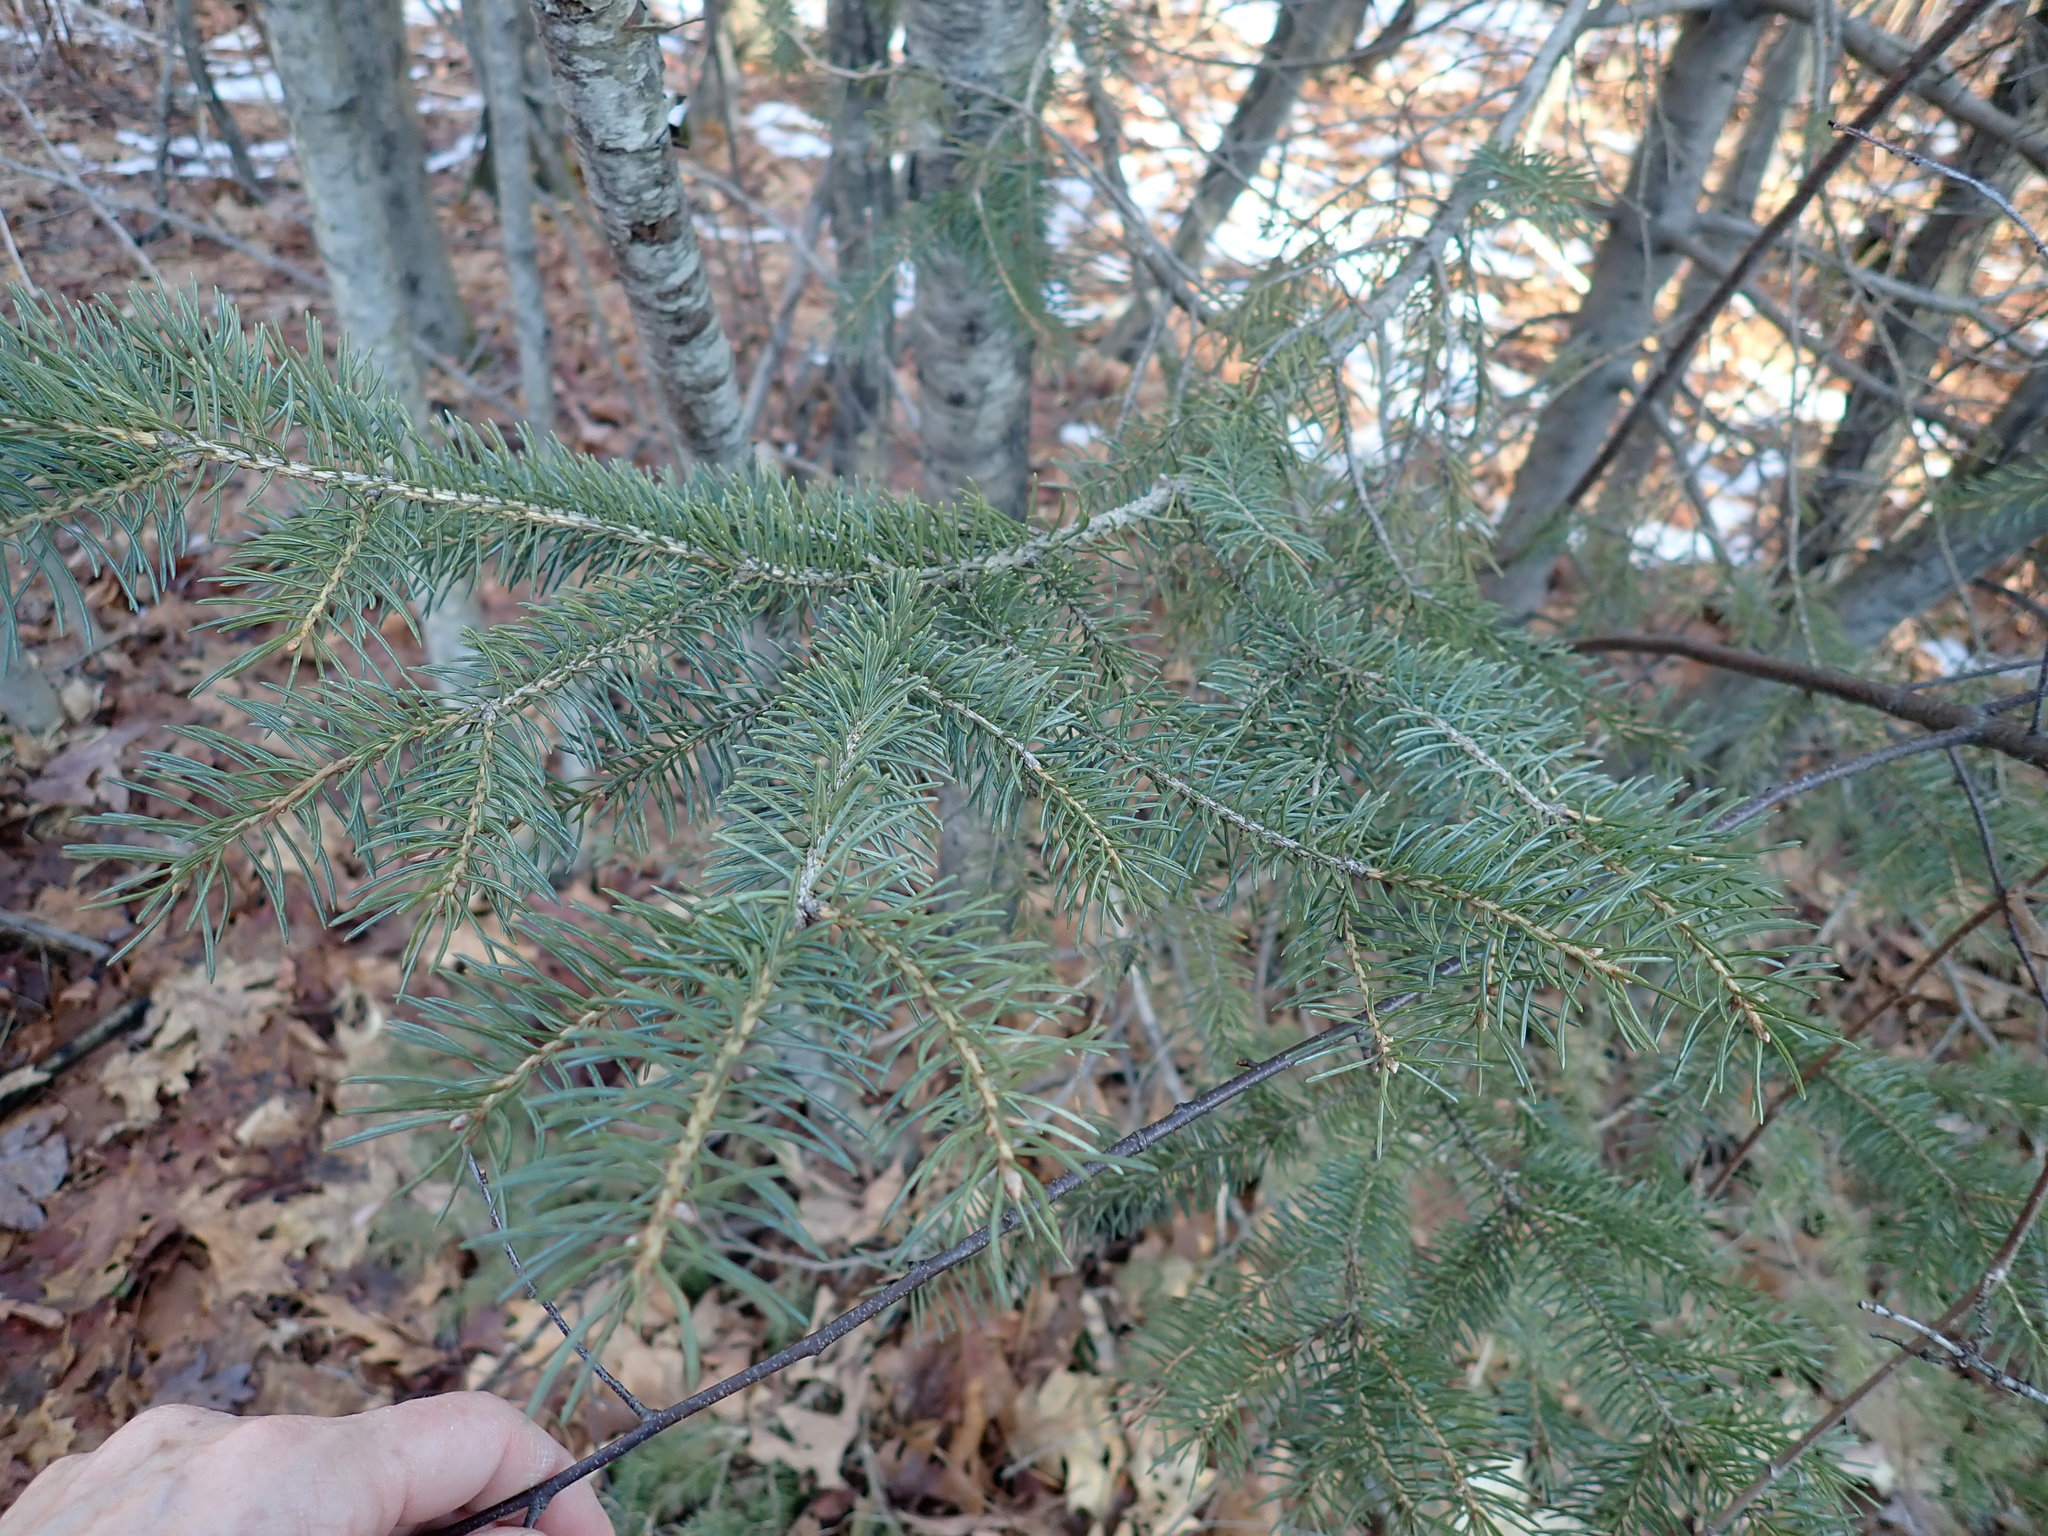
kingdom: Plantae
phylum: Tracheophyta
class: Pinopsida
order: Pinales
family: Pinaceae
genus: Picea
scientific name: Picea
